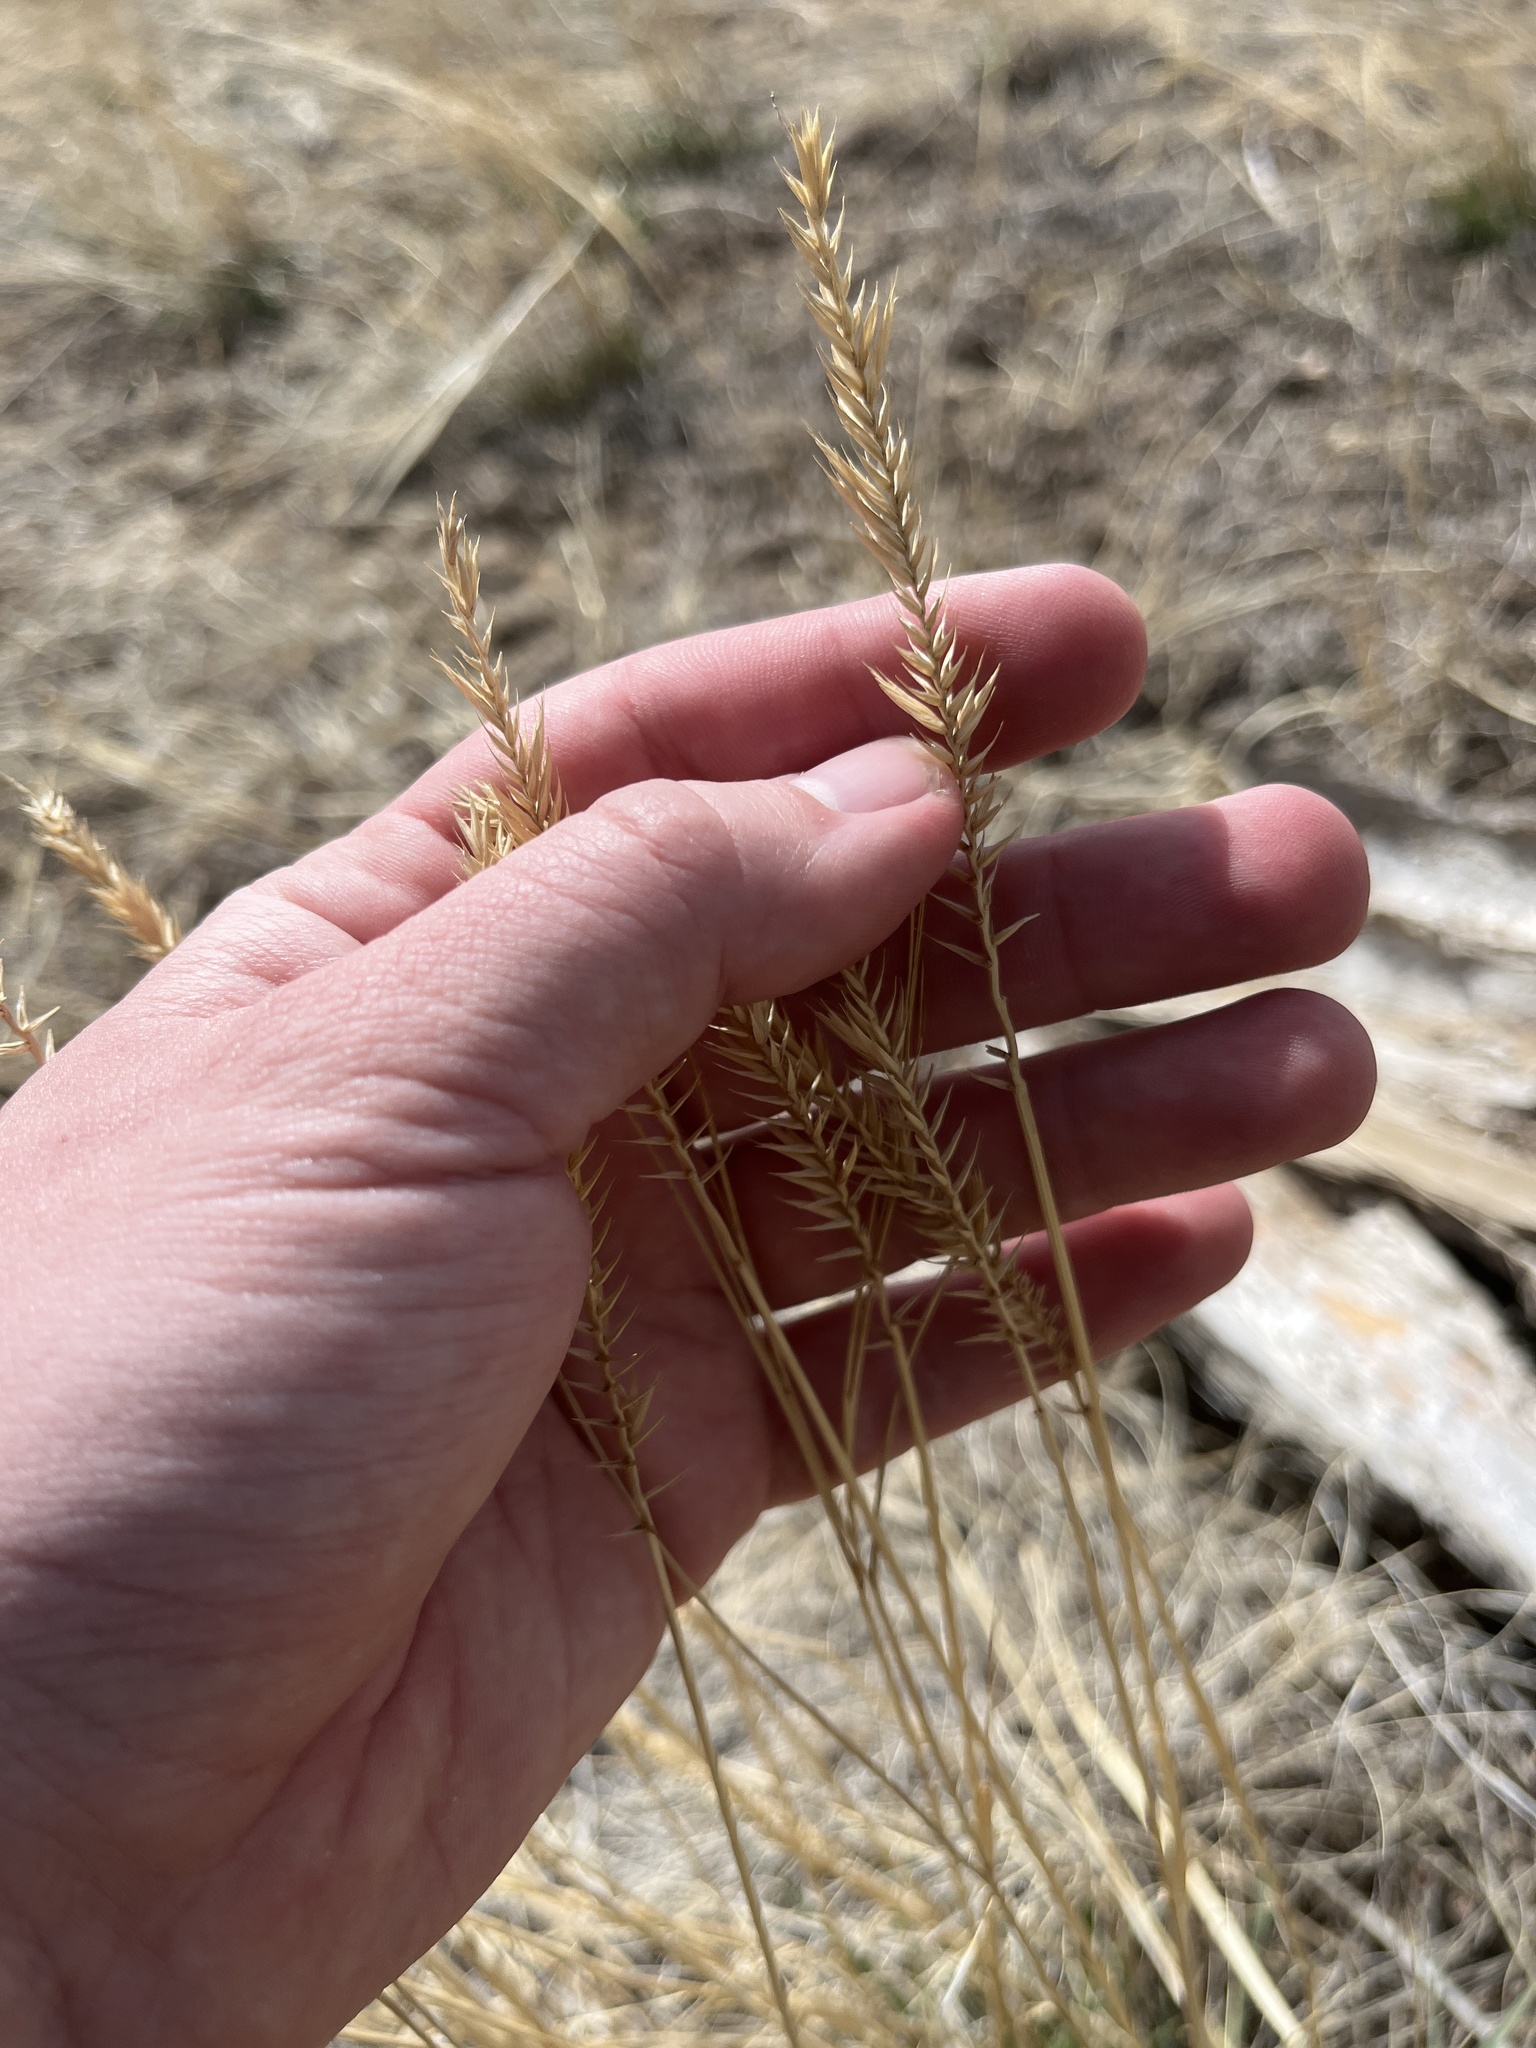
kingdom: Plantae
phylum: Tracheophyta
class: Liliopsida
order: Poales
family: Poaceae
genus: Agropyron
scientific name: Agropyron cristatum
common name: Crested wheatgrass
